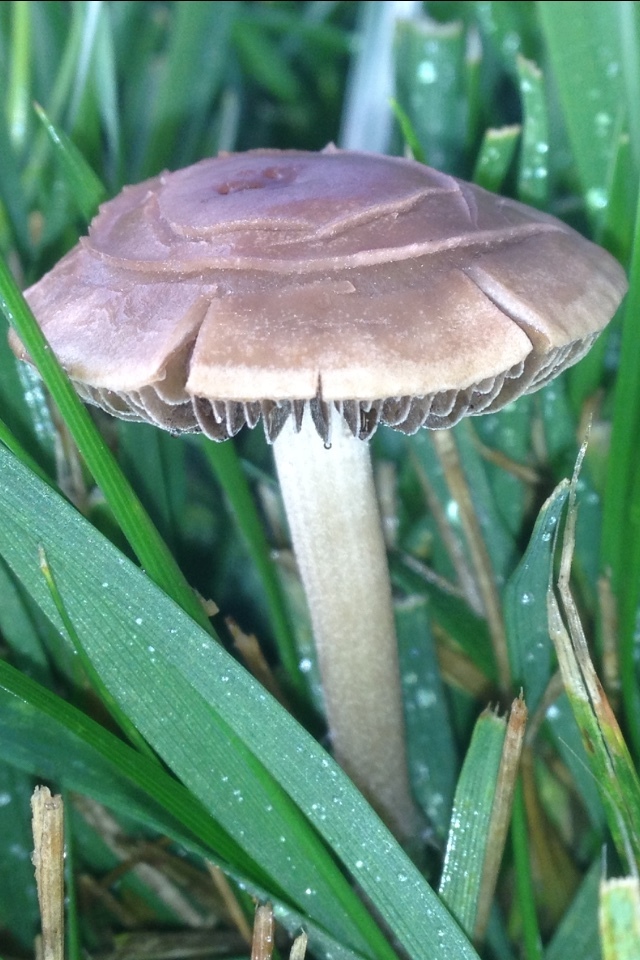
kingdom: Fungi
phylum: Basidiomycota
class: Agaricomycetes
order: Agaricales
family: Bolbitiaceae
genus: Panaeolina
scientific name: Panaeolina foenisecii
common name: Brown hay cap
